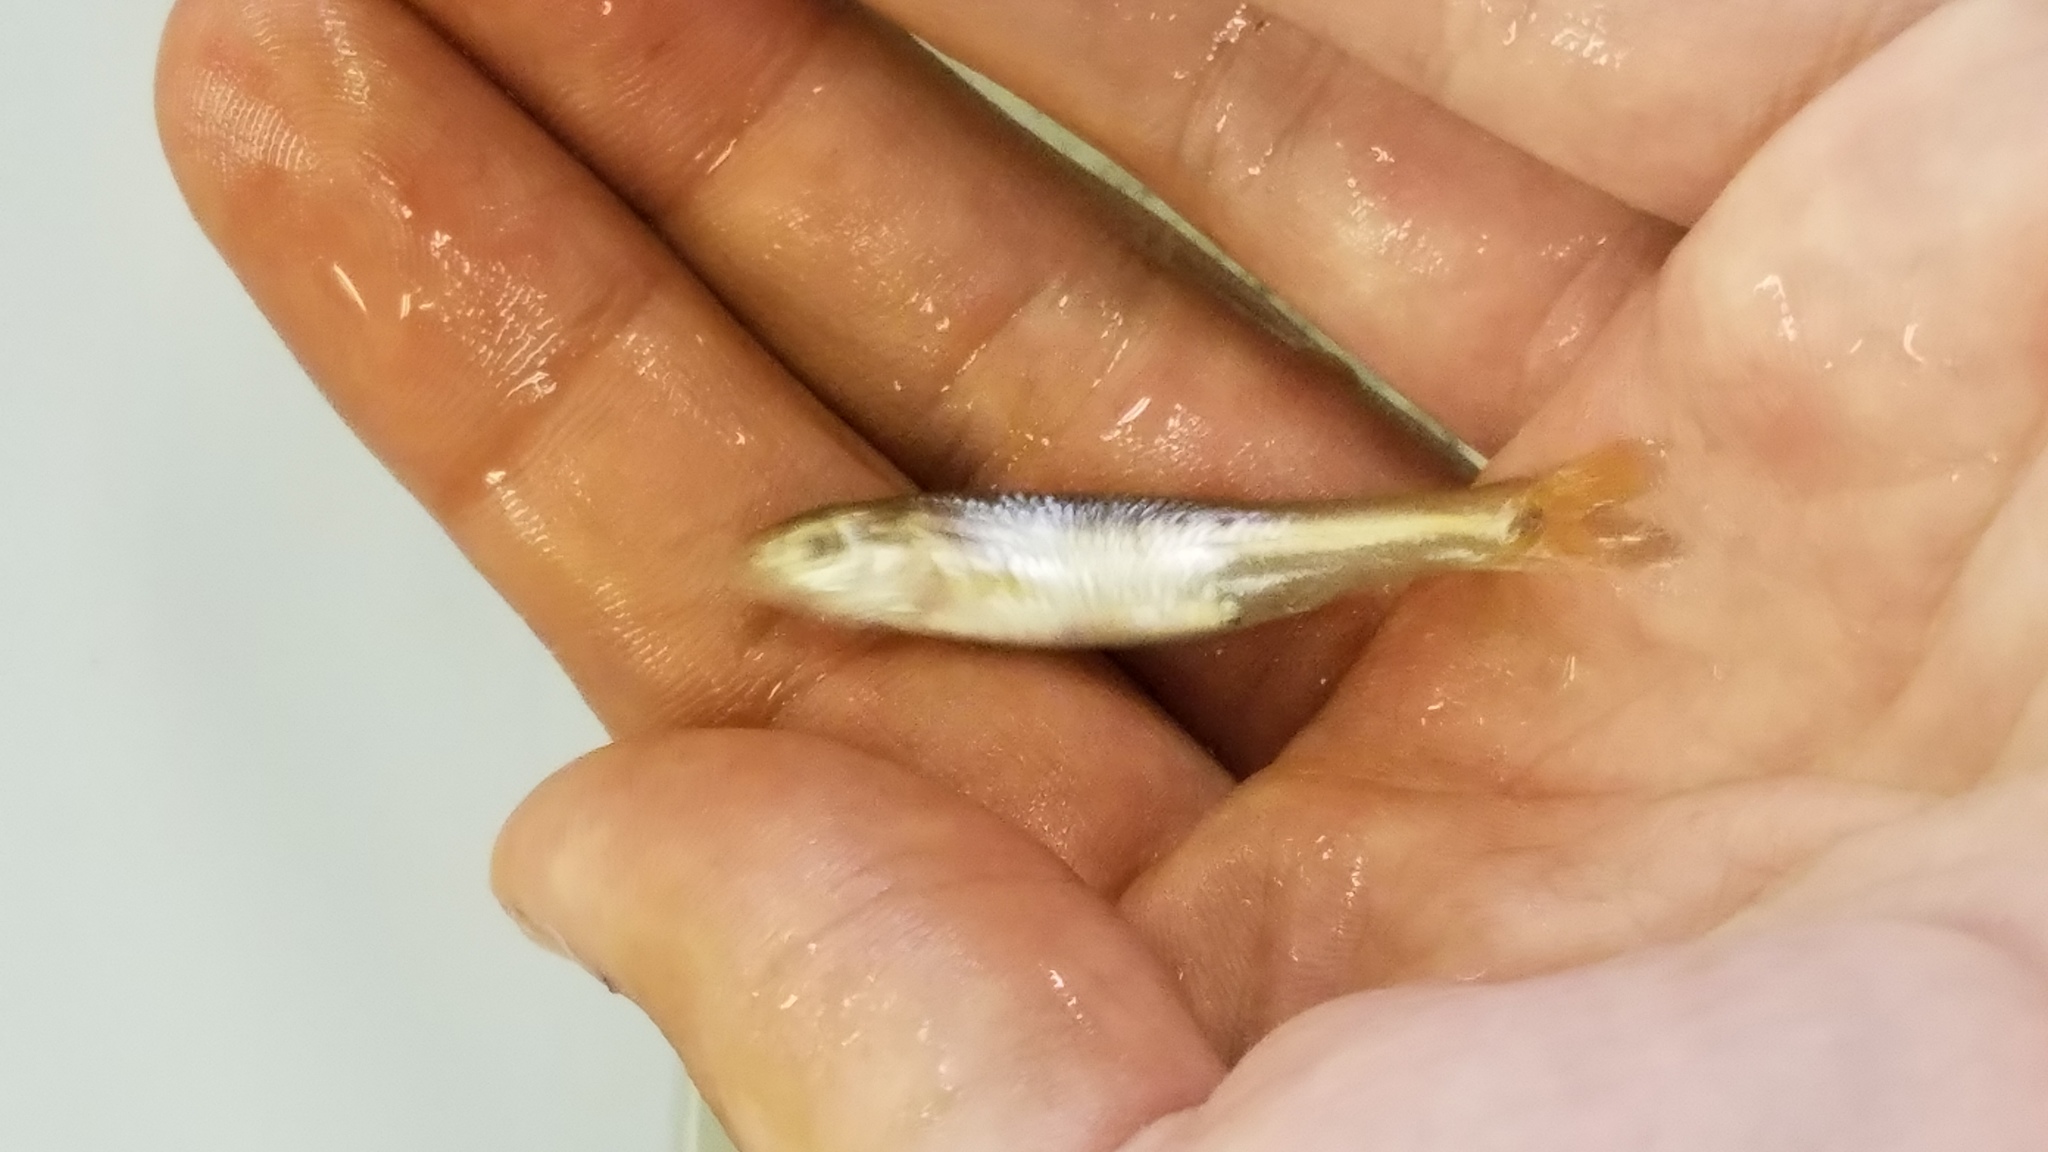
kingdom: Animalia
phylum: Chordata
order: Cypriniformes
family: Cyprinidae
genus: Notropis
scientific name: Notropis
